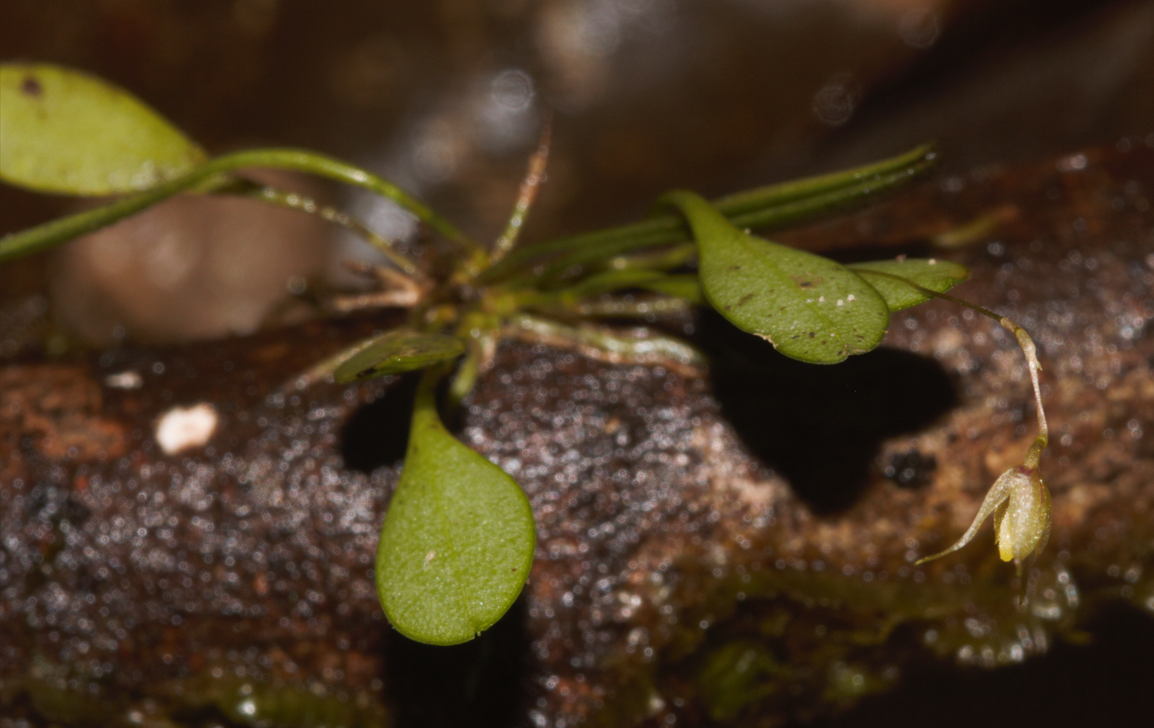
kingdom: Plantae
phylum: Tracheophyta
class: Liliopsida
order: Asparagales
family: Orchidaceae
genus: Muscarella
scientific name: Muscarella semperflorens
